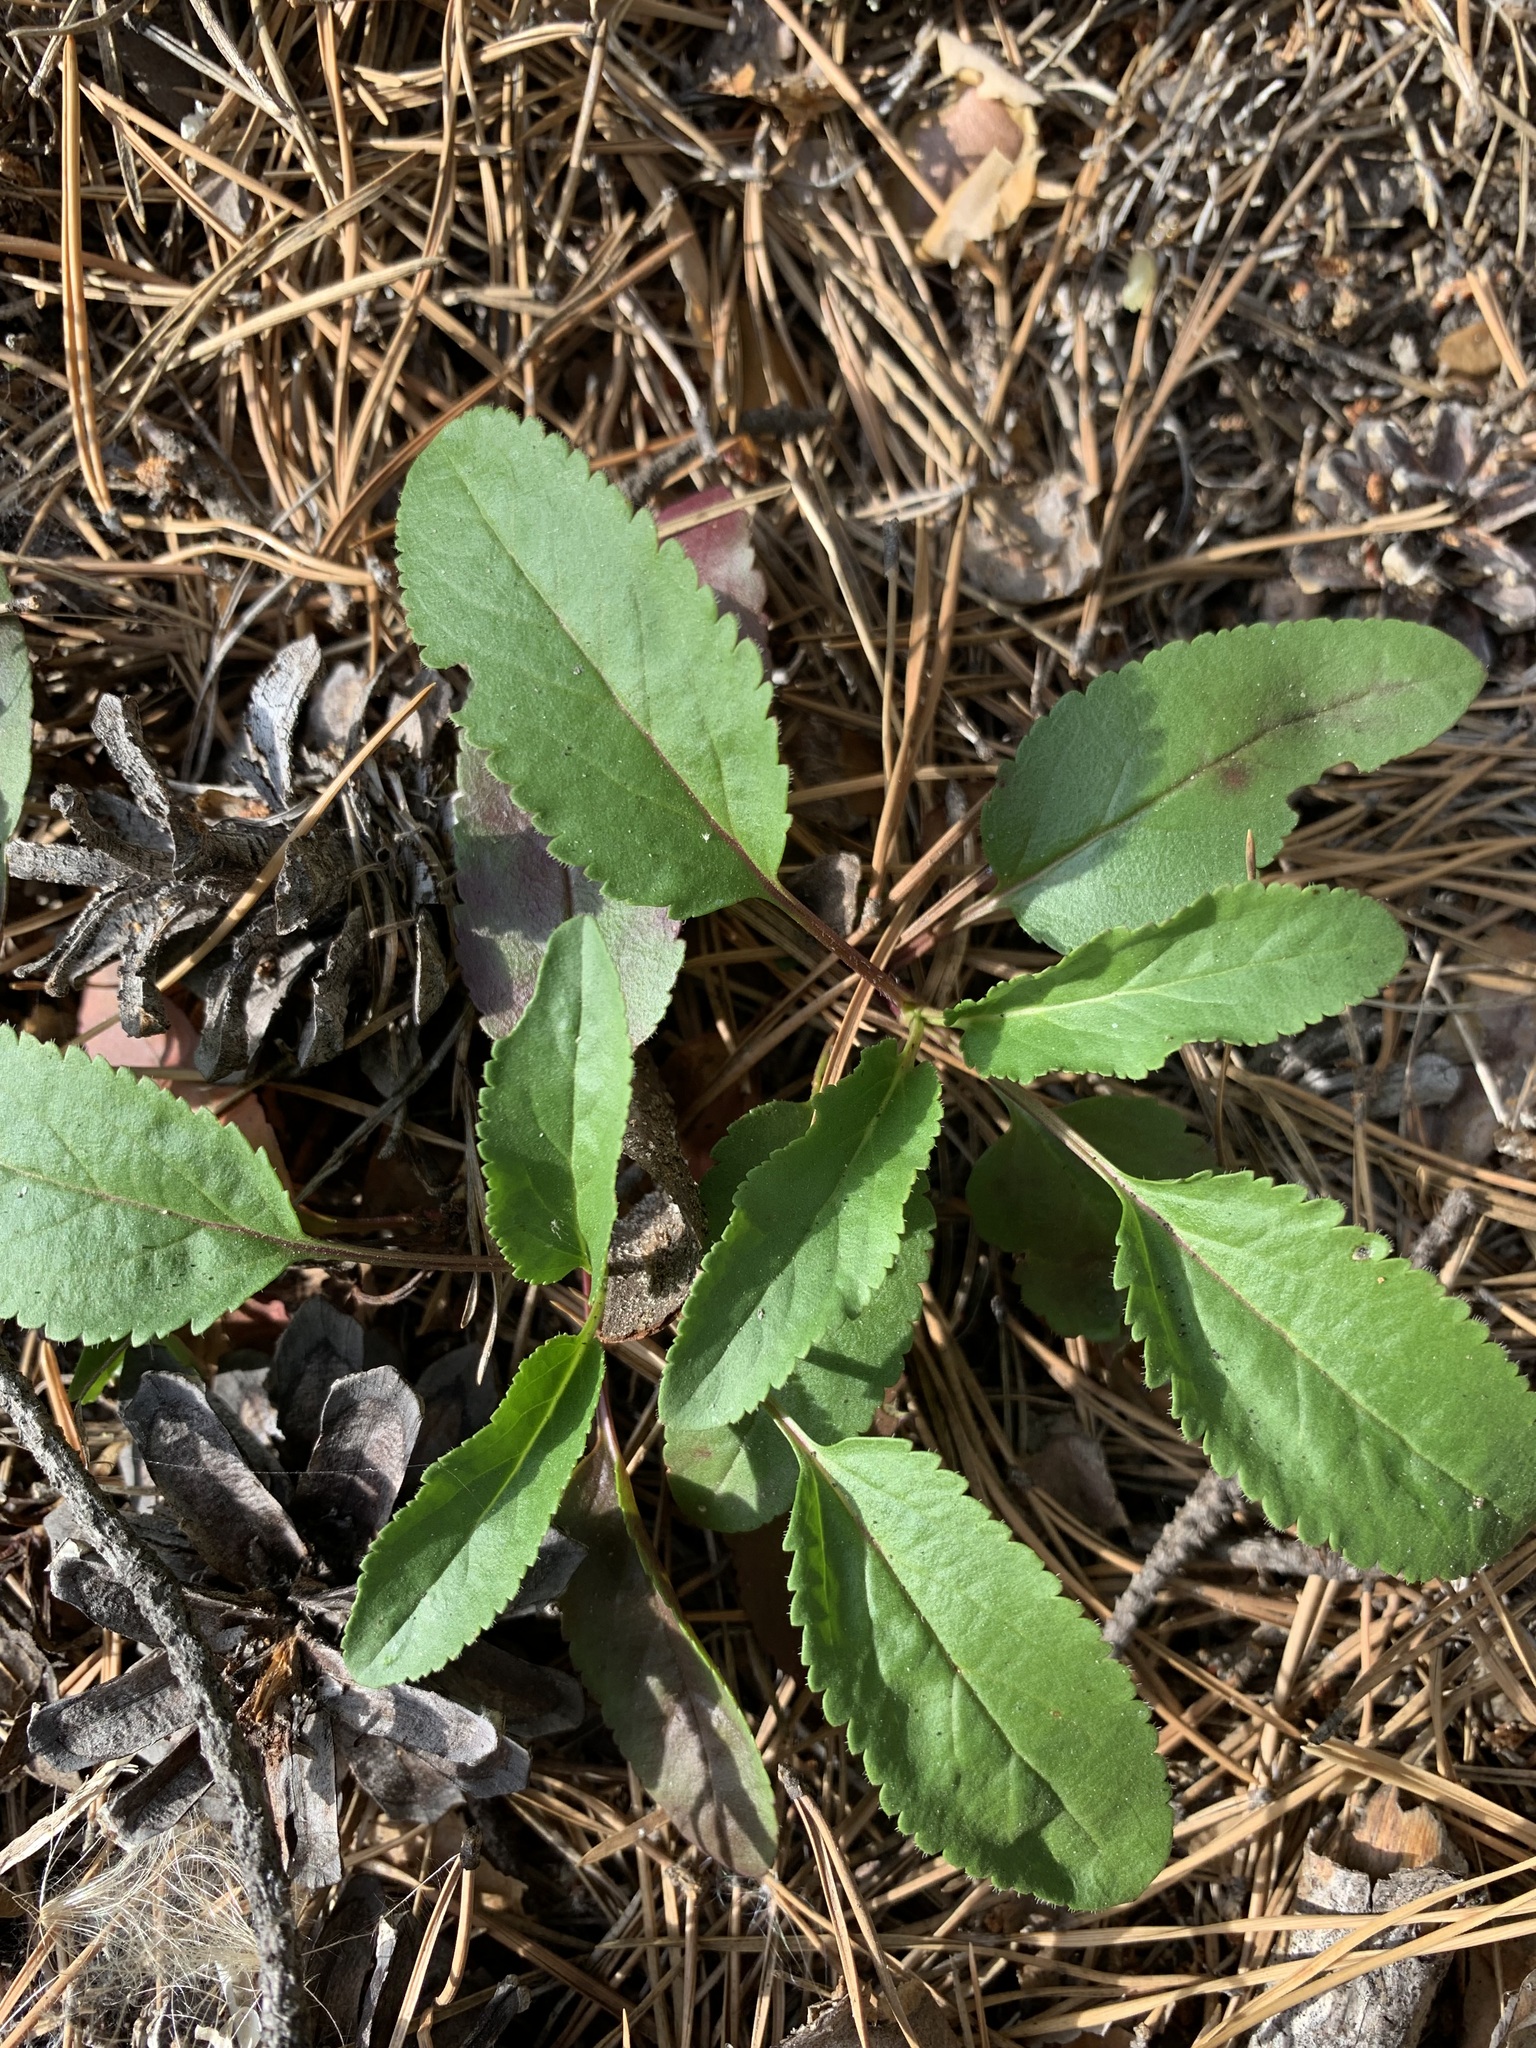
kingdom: Plantae
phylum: Tracheophyta
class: Magnoliopsida
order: Lamiales
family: Plantaginaceae
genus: Veronica
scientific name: Veronica spicata
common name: Spiked speedwell
